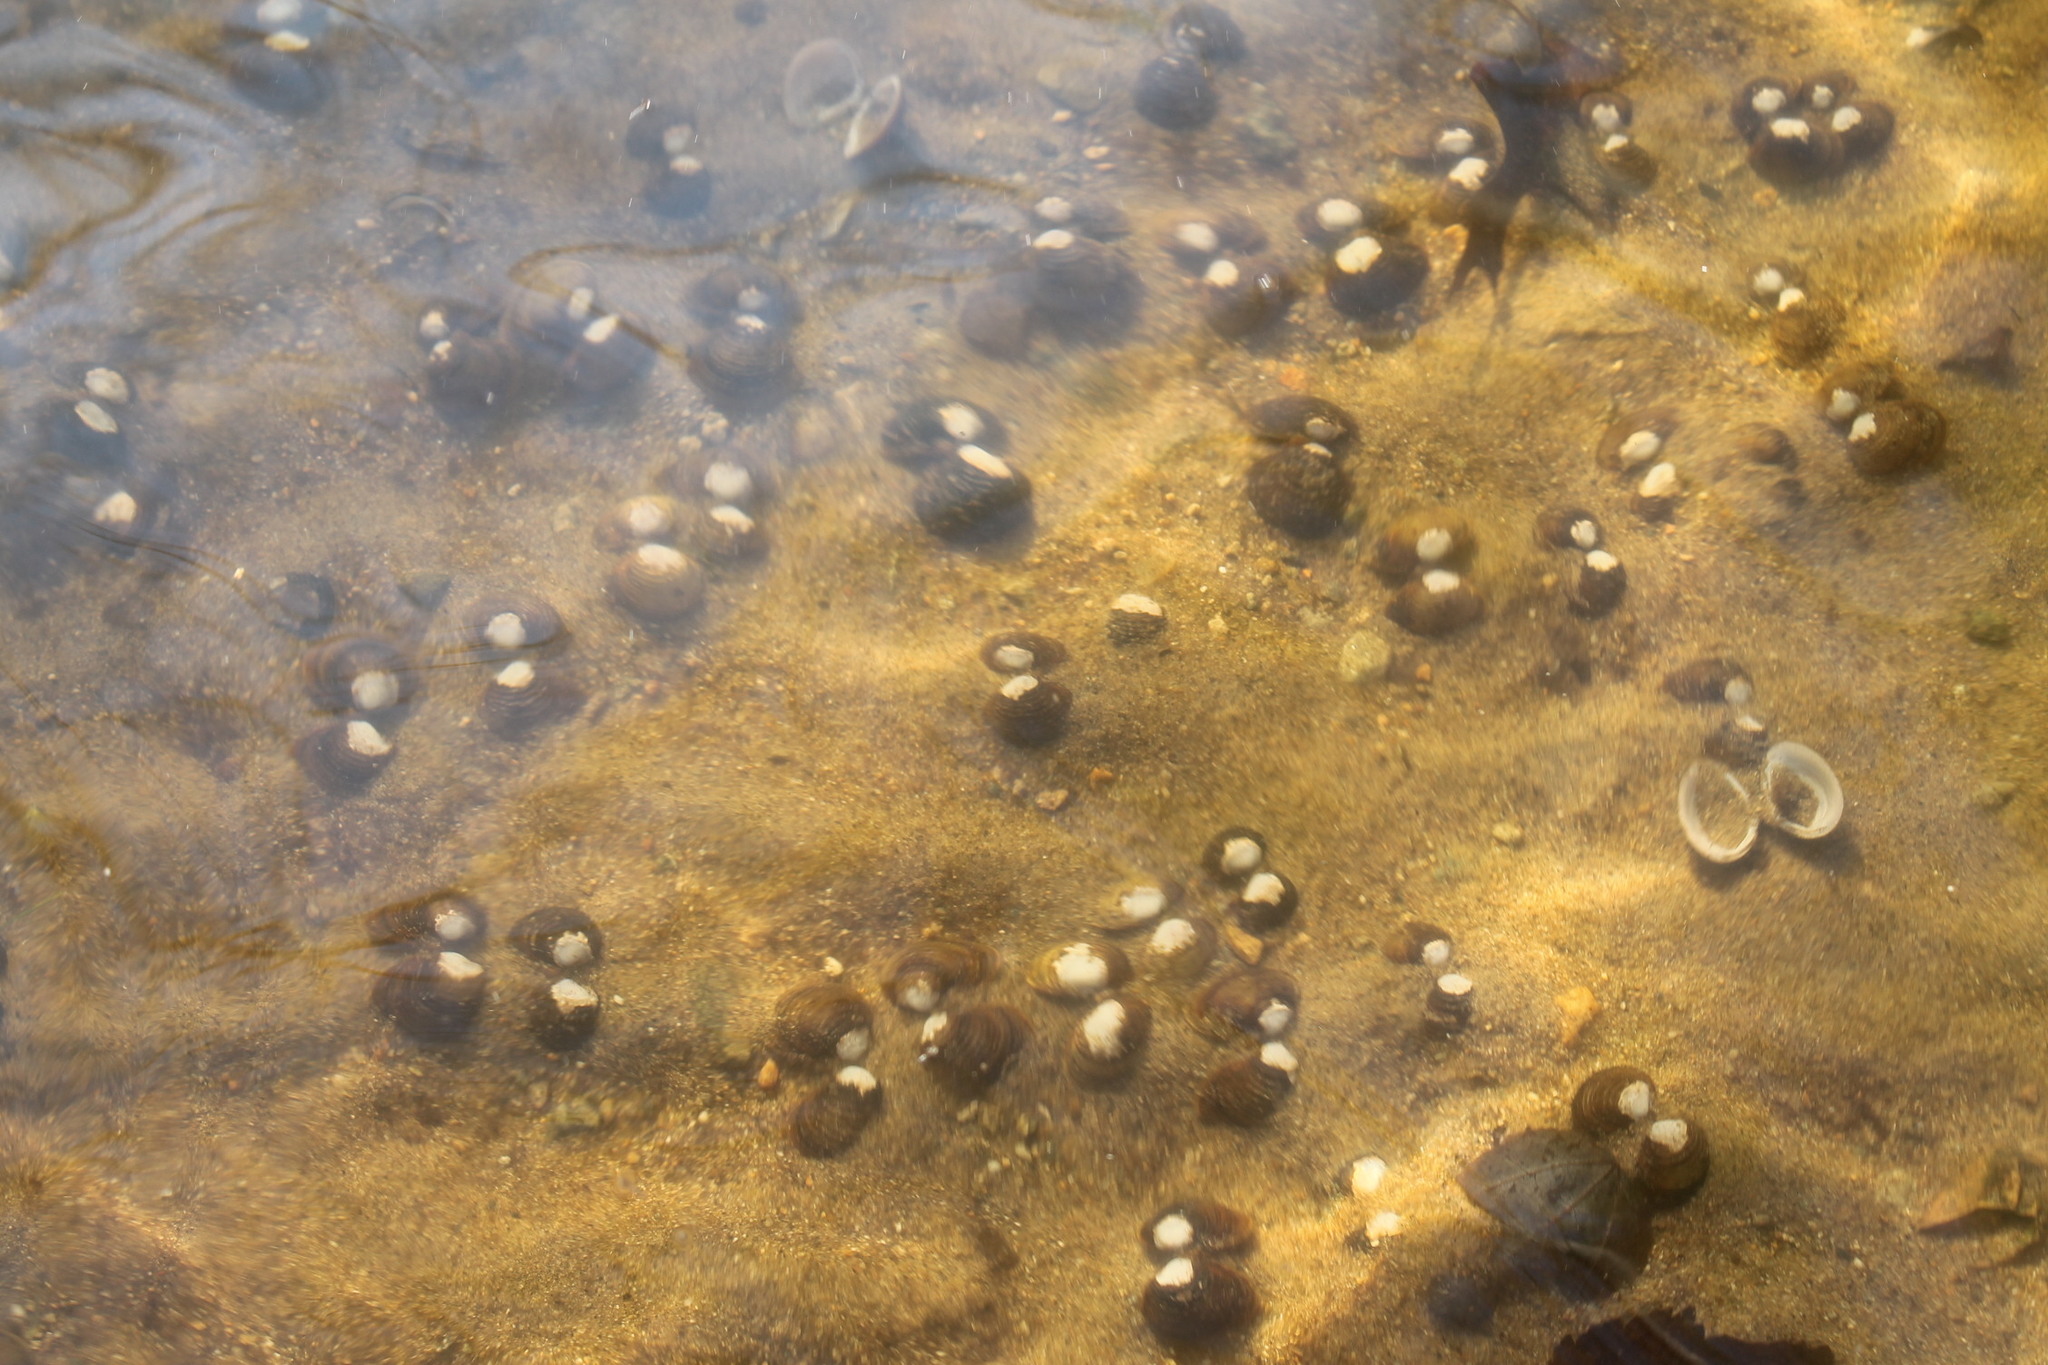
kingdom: Animalia
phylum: Mollusca
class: Bivalvia
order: Venerida
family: Cyrenidae
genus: Corbicula
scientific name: Corbicula fluminea
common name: Asian clam
